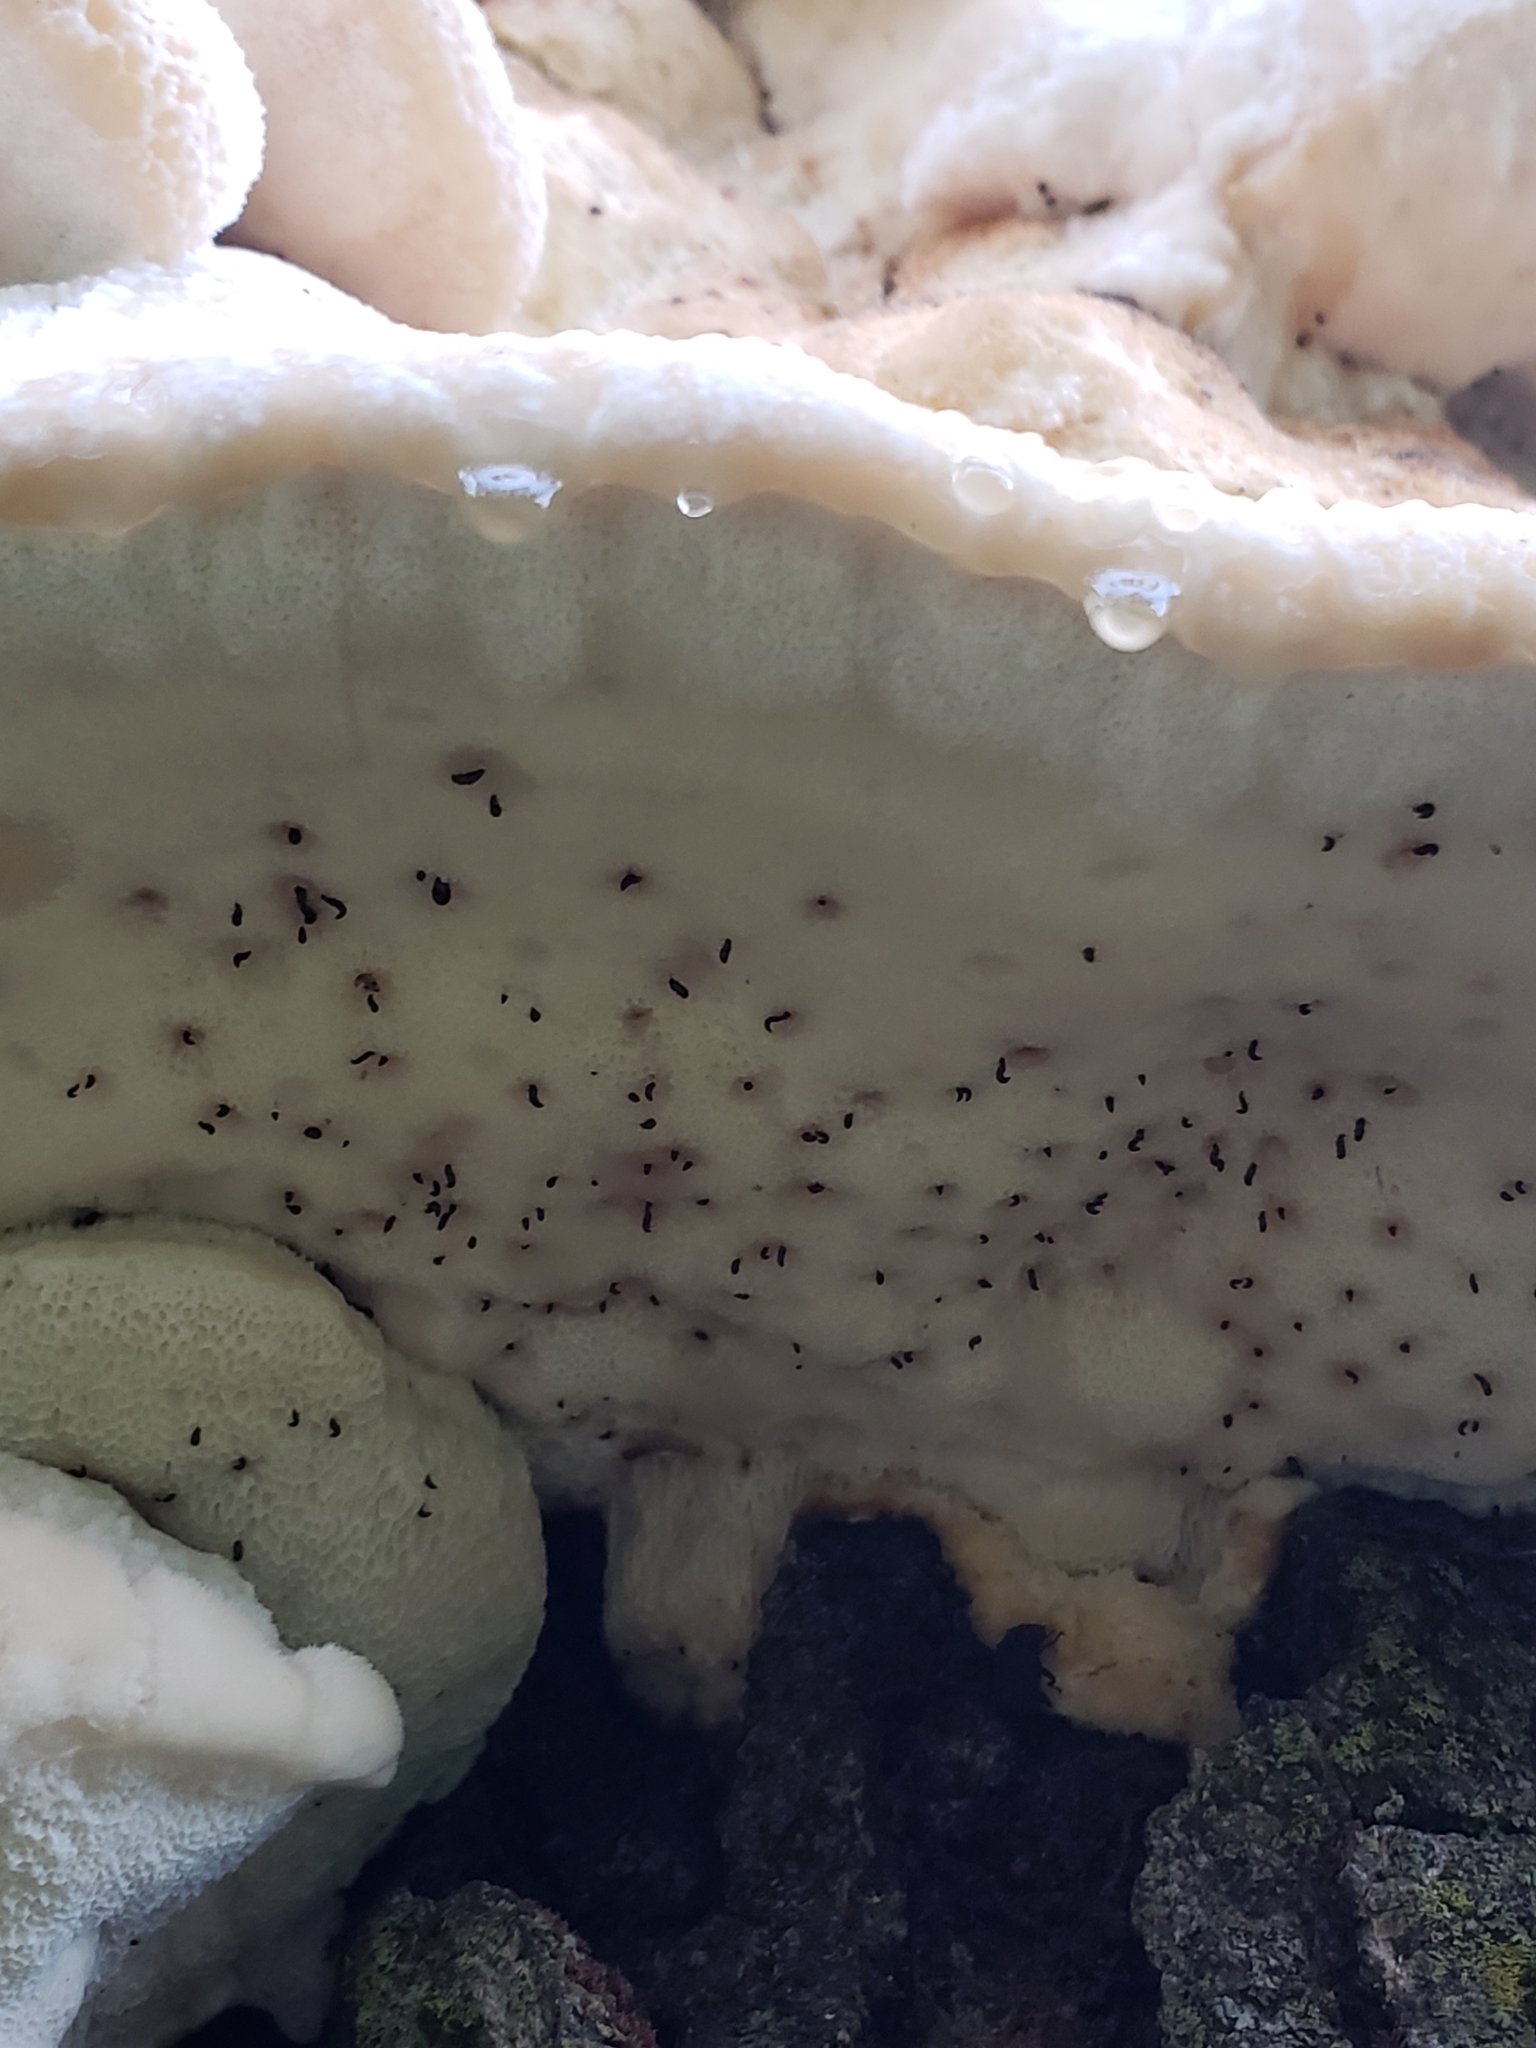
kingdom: Fungi
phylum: Basidiomycota
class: Agaricomycetes
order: Polyporales
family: Meruliaceae
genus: Irpiciporus
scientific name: Irpiciporus pachyodon
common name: Marshmallow polypore
